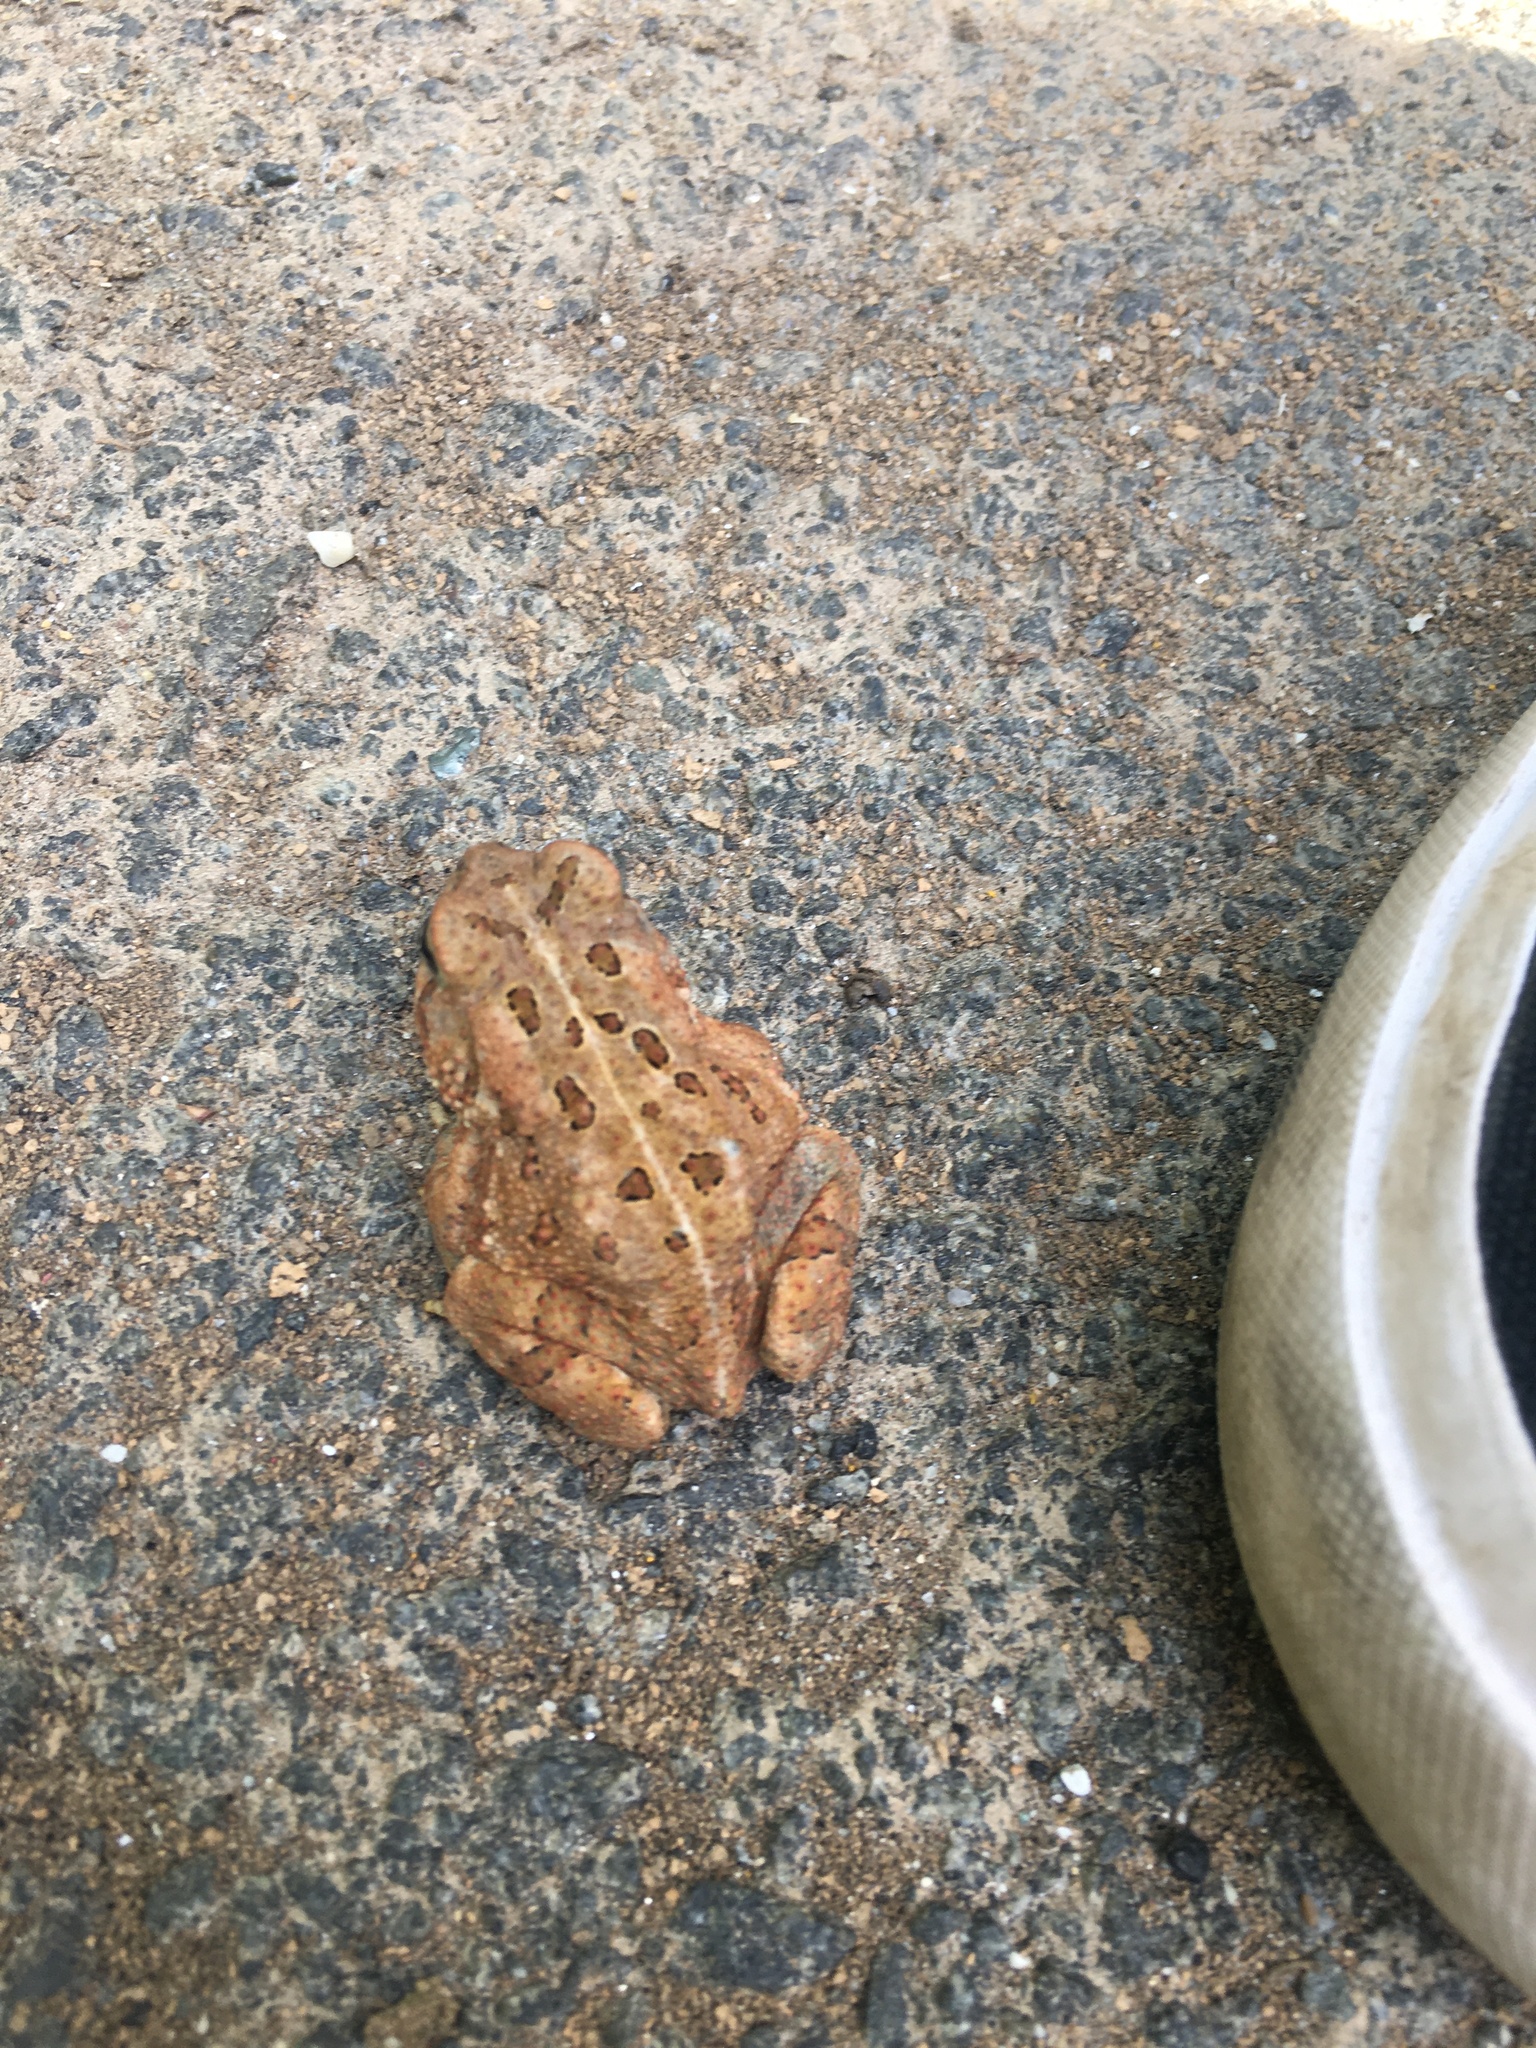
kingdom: Animalia
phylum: Chordata
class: Amphibia
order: Anura
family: Bufonidae
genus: Anaxyrus
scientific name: Anaxyrus fowleri
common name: Fowler's toad
